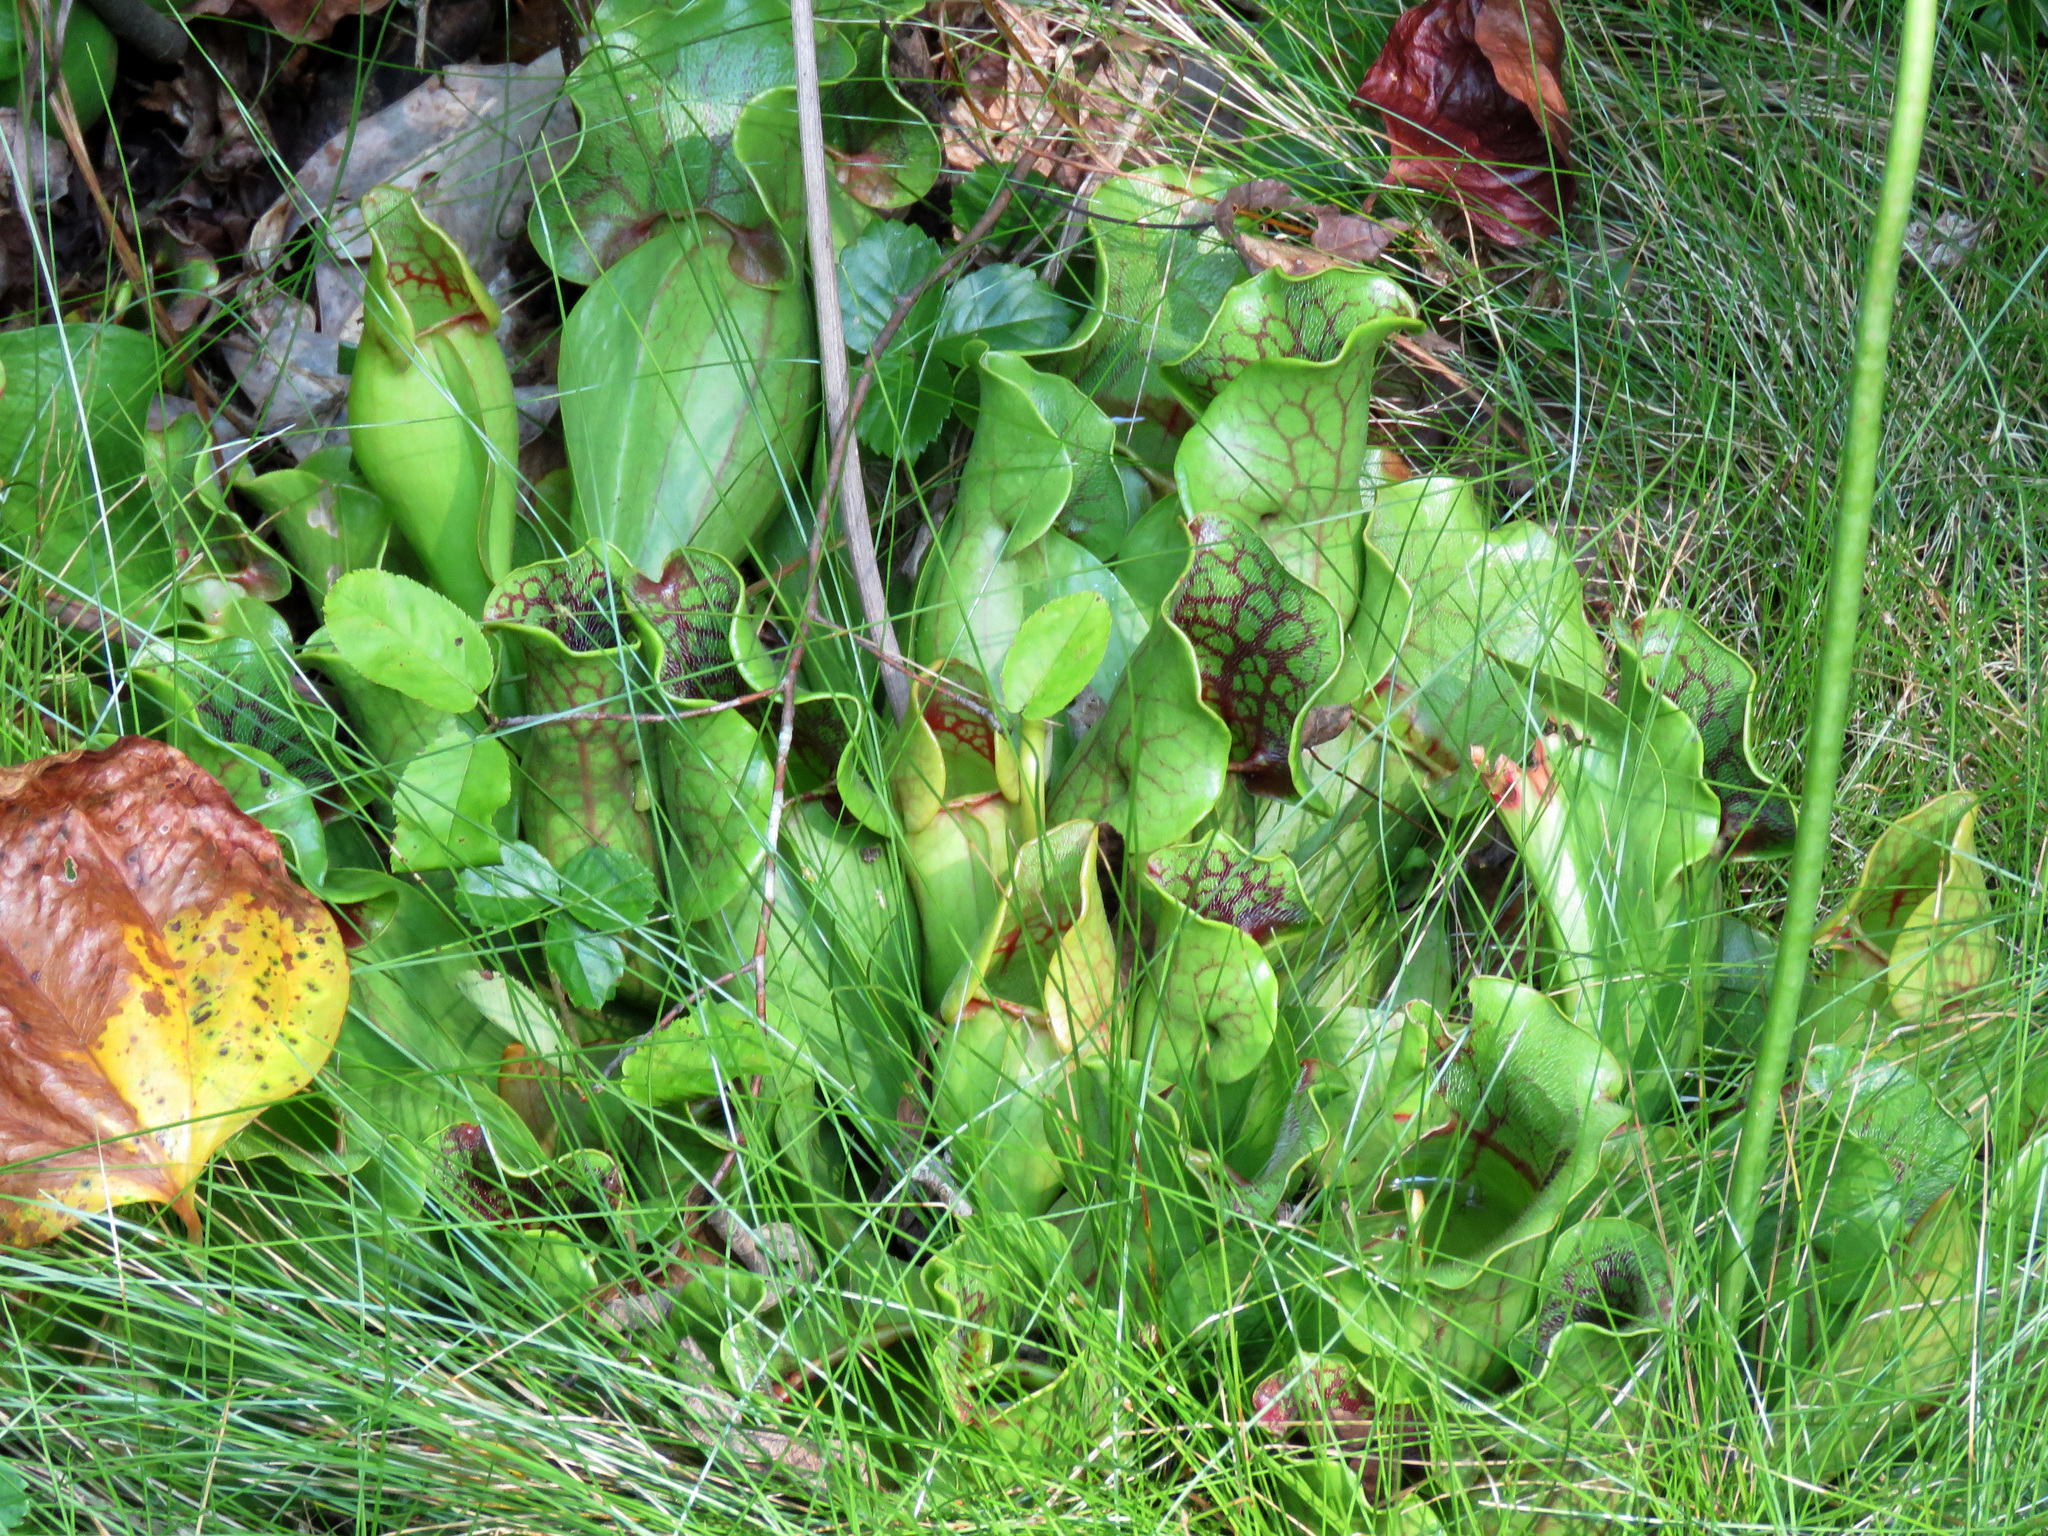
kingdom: Plantae
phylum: Tracheophyta
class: Magnoliopsida
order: Ericales
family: Sarraceniaceae
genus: Sarracenia
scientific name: Sarracenia purpurea
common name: Pitcherplant
